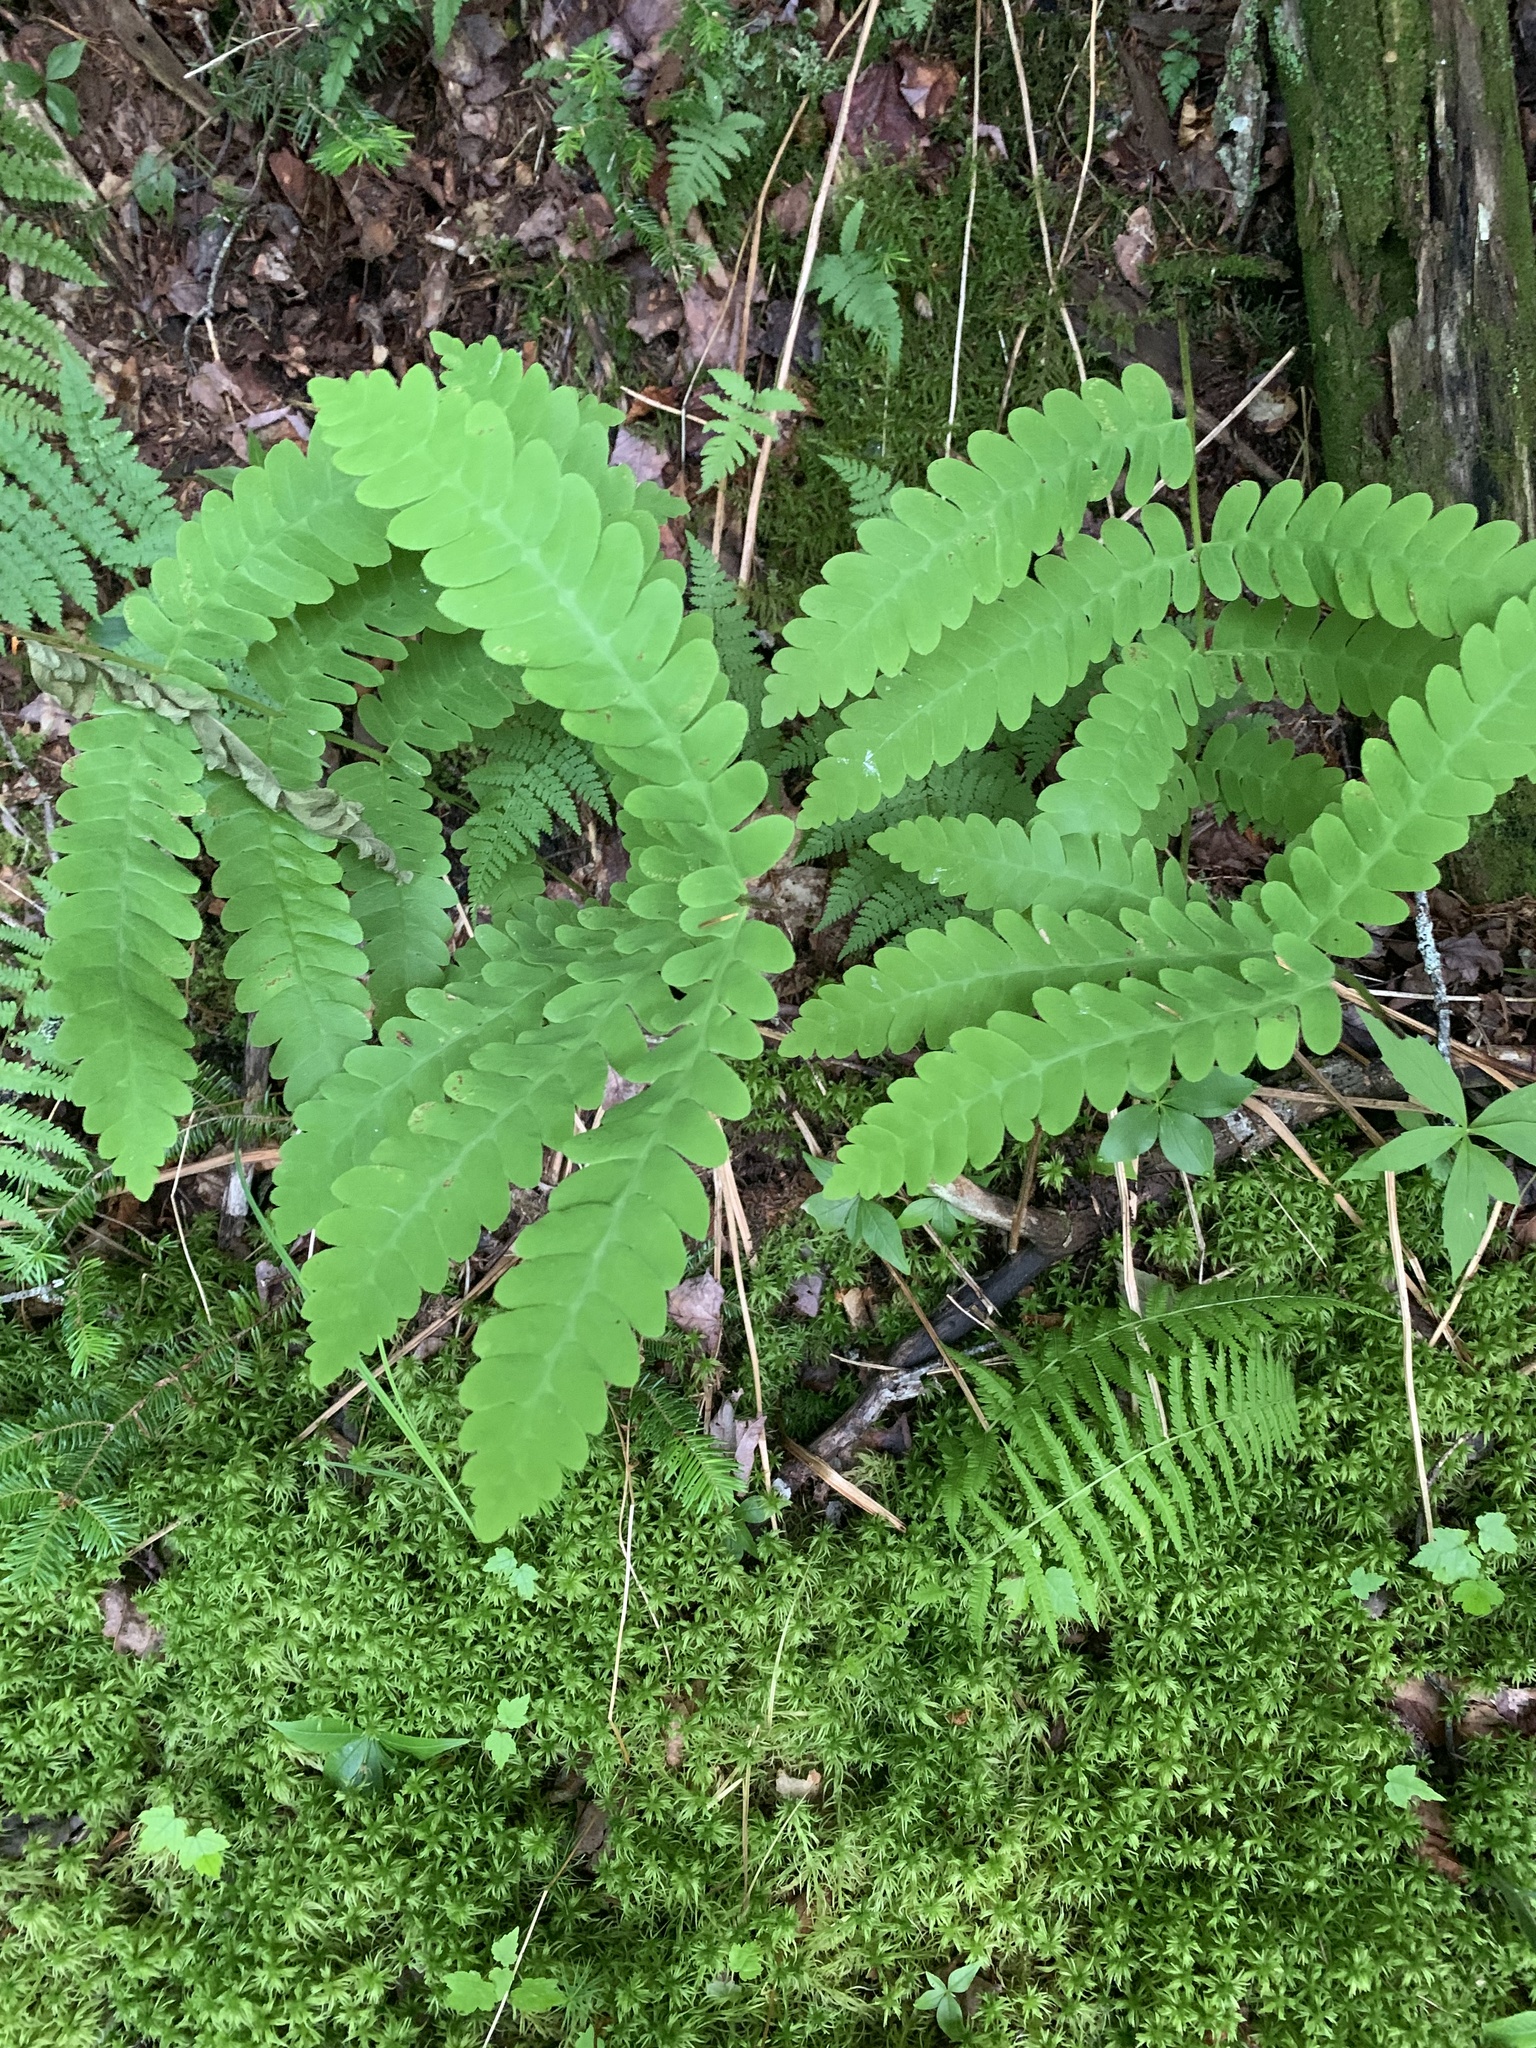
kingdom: Plantae
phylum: Tracheophyta
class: Polypodiopsida
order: Osmundales
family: Osmundaceae
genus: Claytosmunda
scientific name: Claytosmunda claytoniana
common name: Clayton's fern
